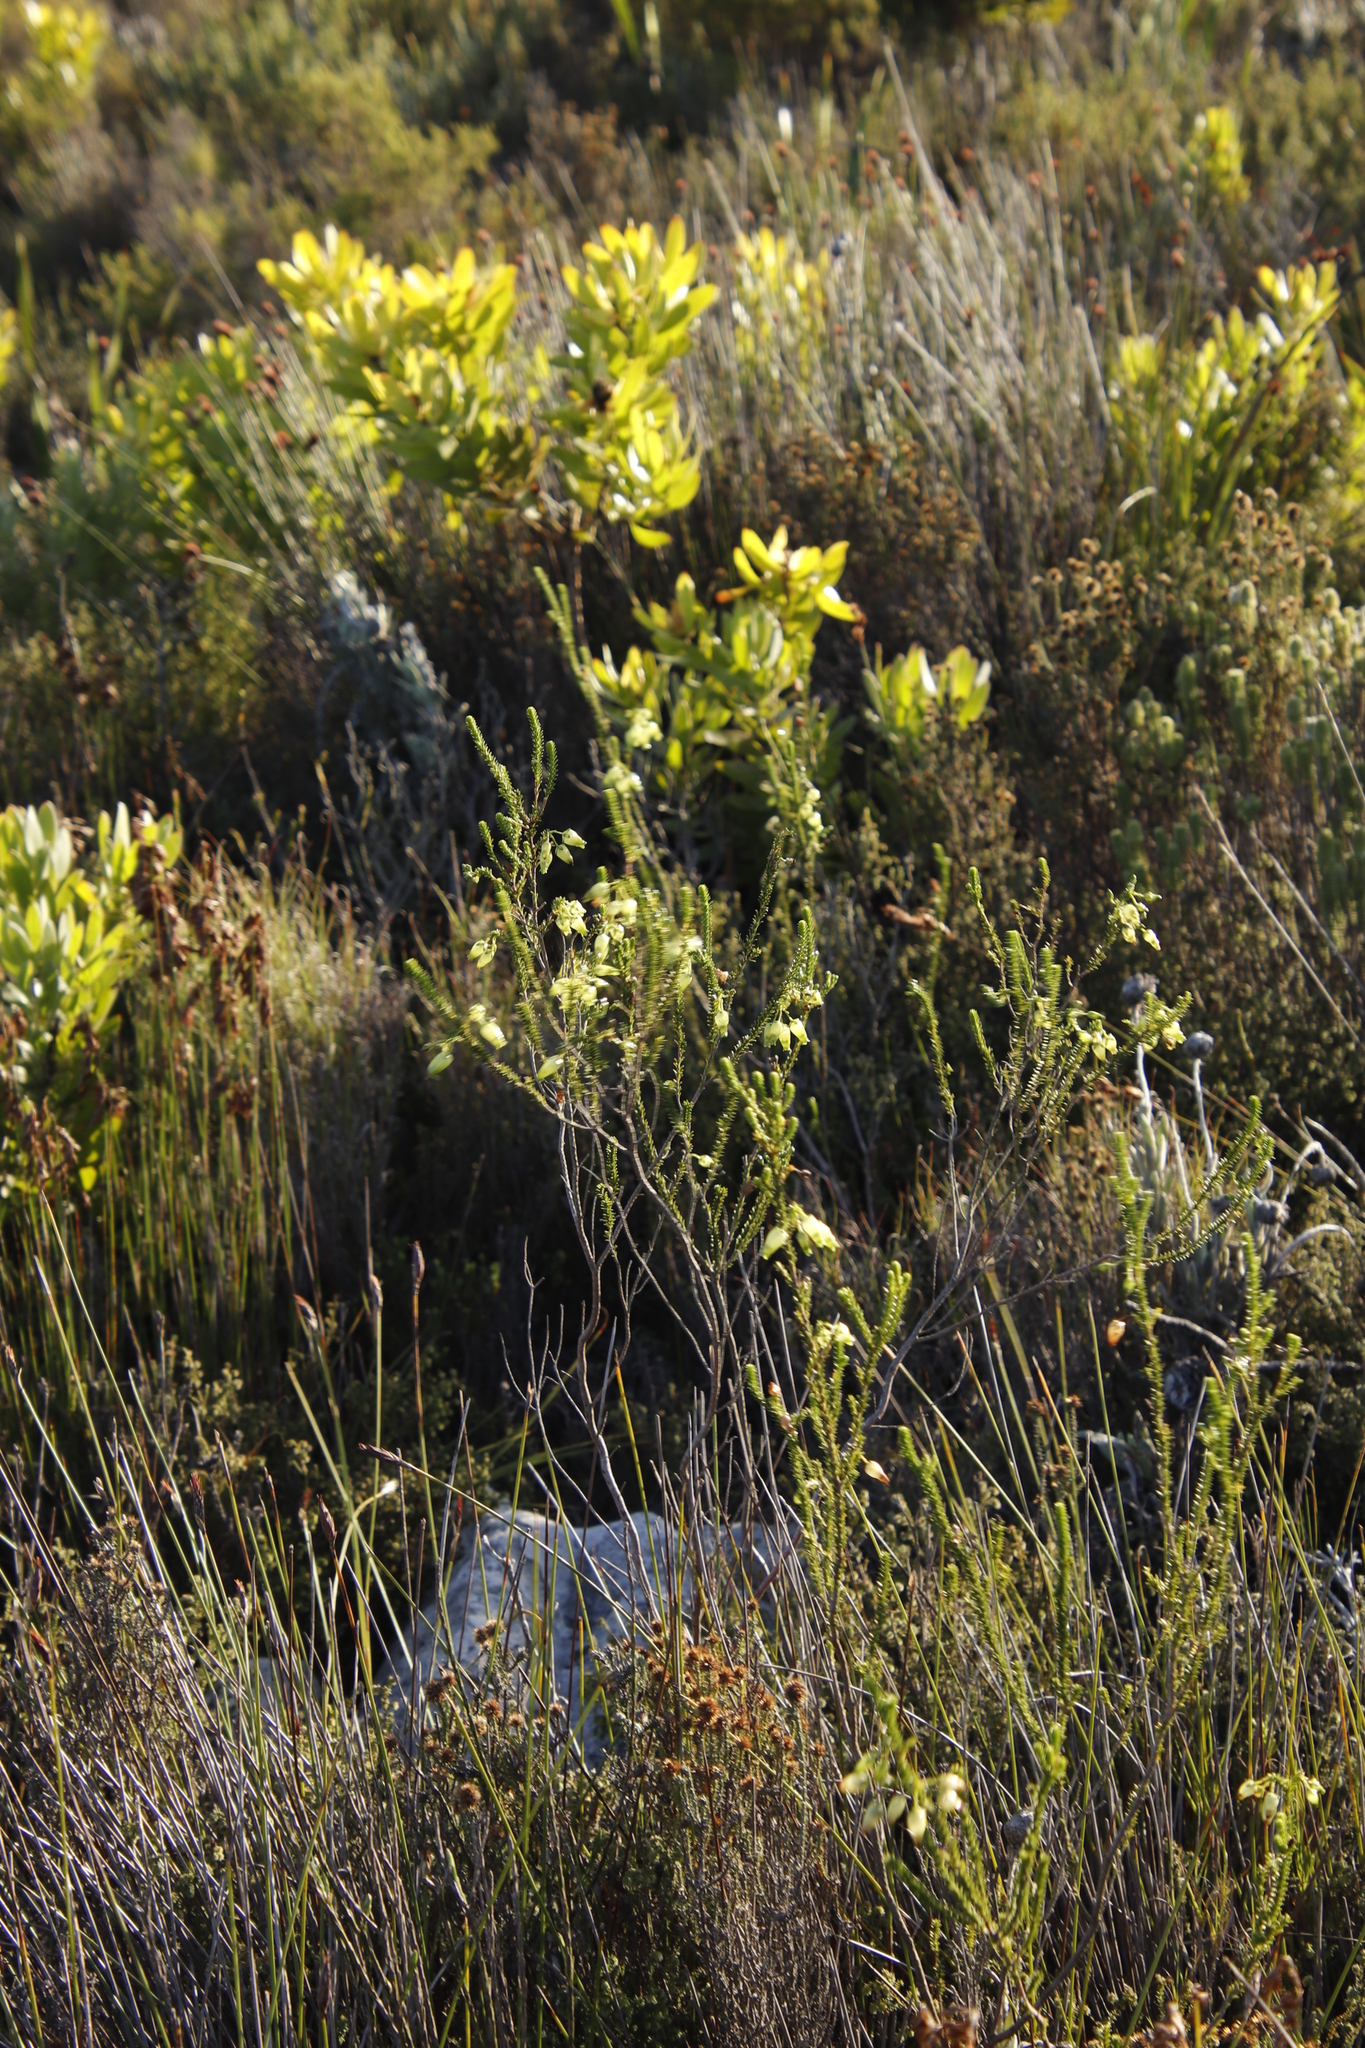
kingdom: Plantae
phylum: Tracheophyta
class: Magnoliopsida
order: Ericales
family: Ericaceae
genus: Erica
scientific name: Erica urna-viridis
